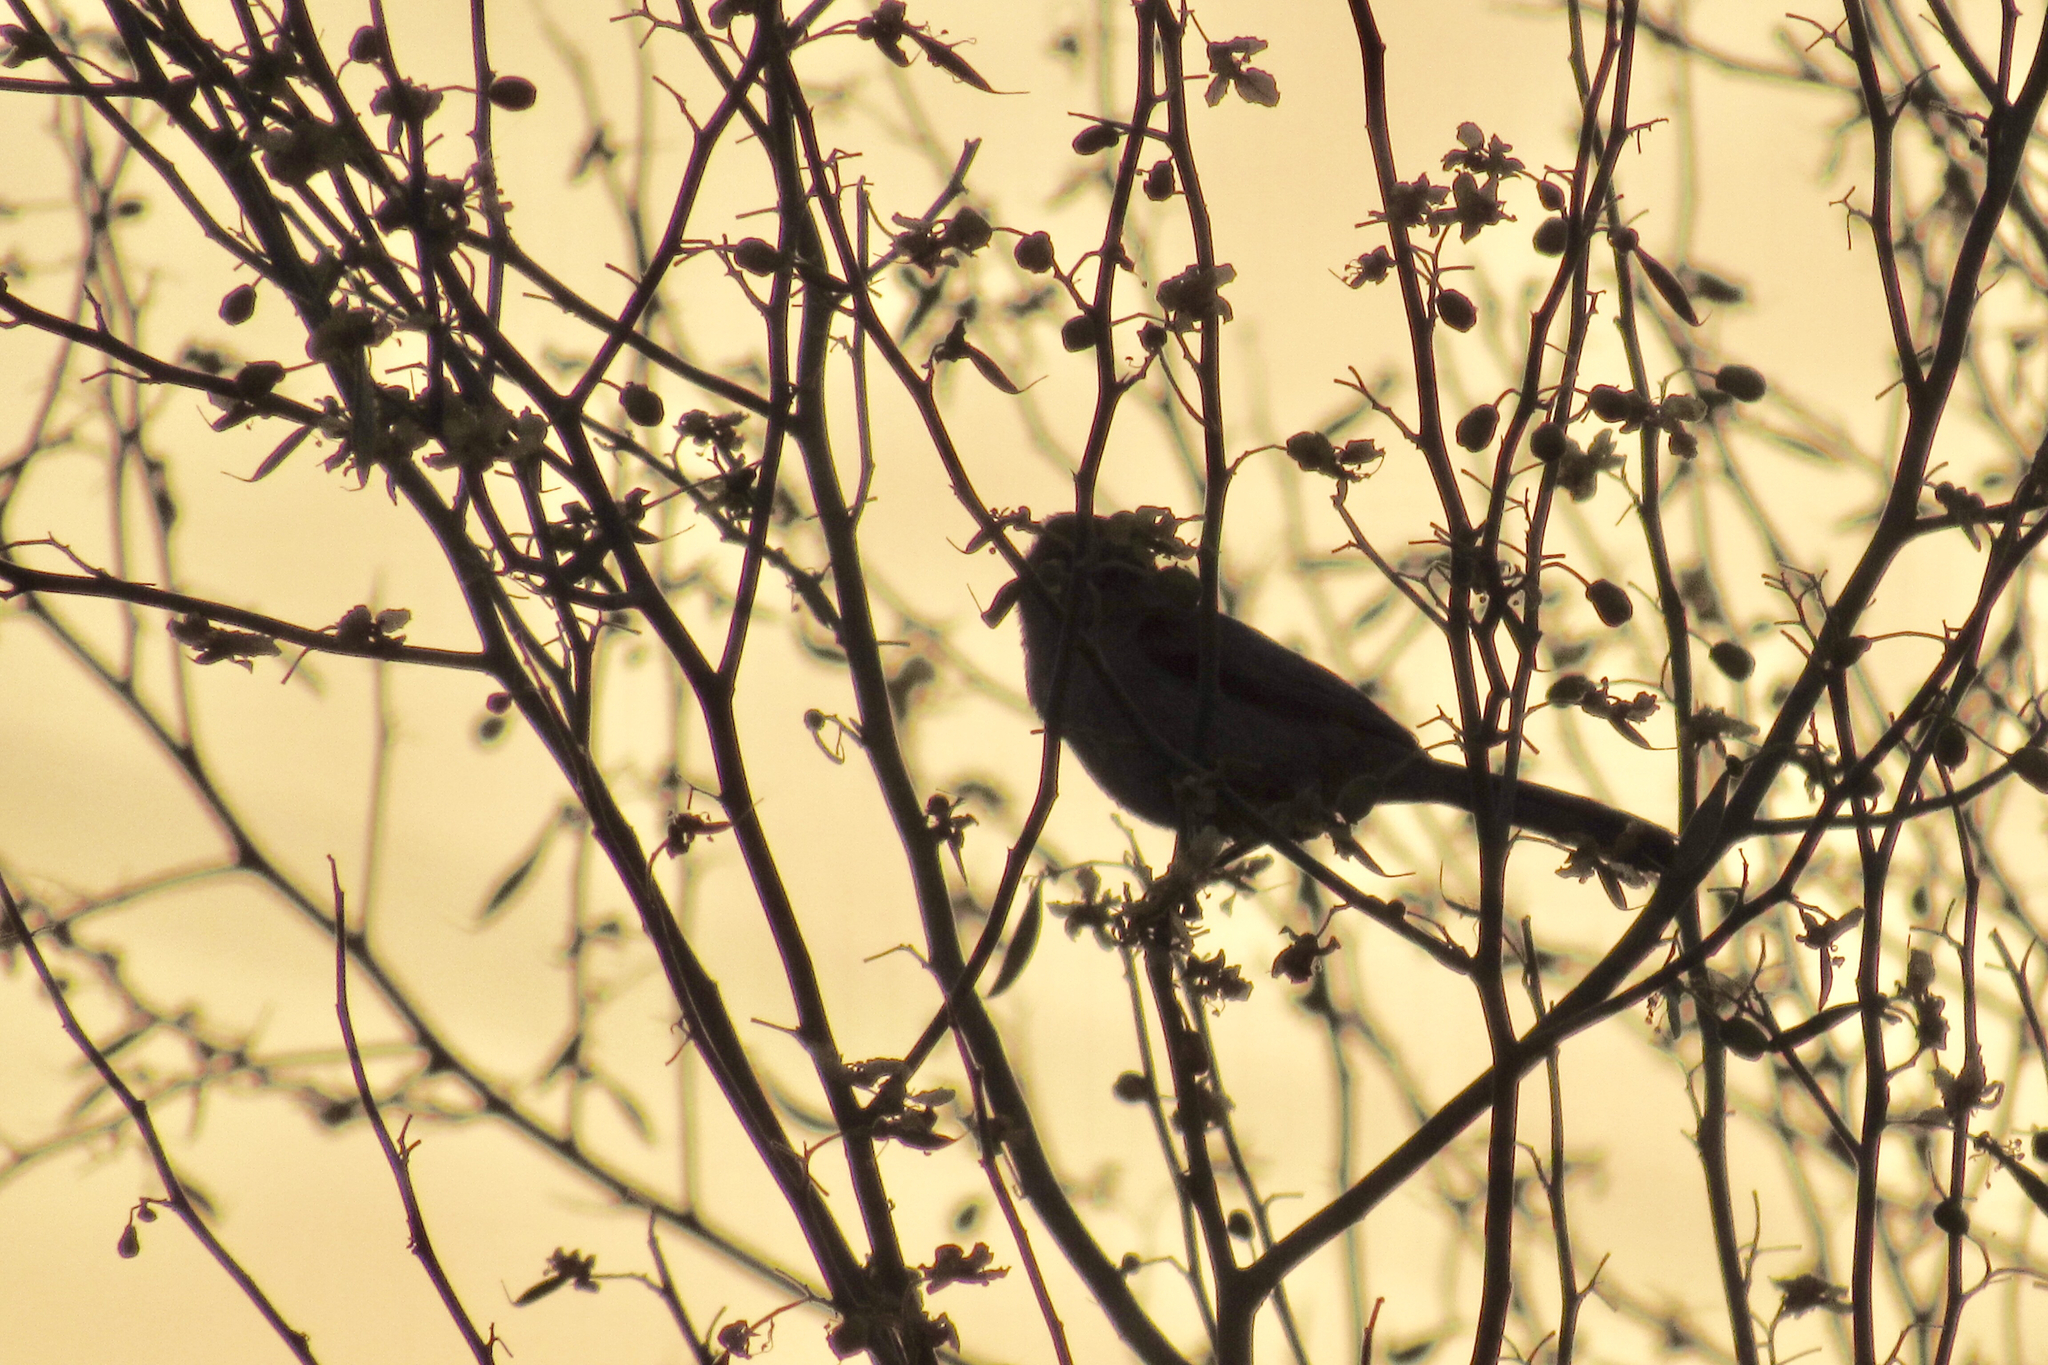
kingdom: Animalia
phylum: Chordata
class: Aves
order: Passeriformes
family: Remizidae
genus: Auriparus
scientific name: Auriparus flaviceps
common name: Verdin
